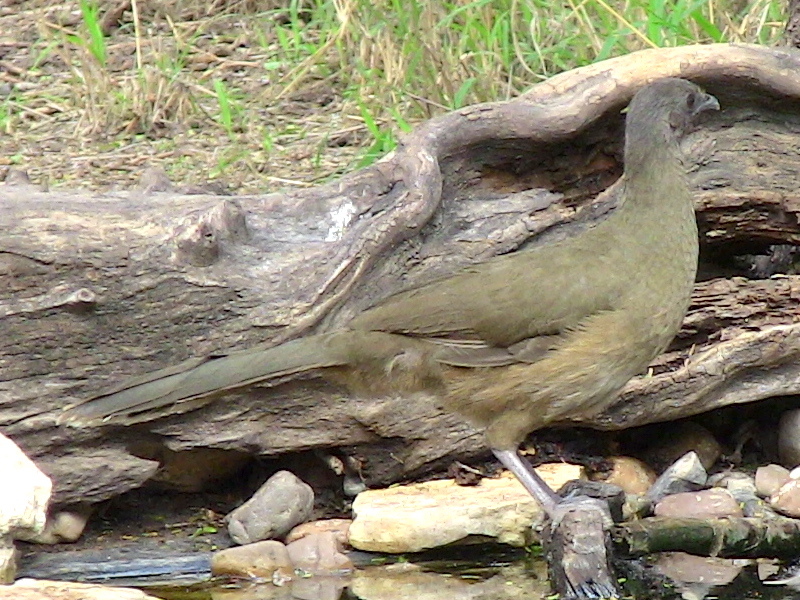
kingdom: Animalia
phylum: Chordata
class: Aves
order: Galliformes
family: Cracidae
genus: Ortalis
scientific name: Ortalis vetula
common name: Plain chachalaca
